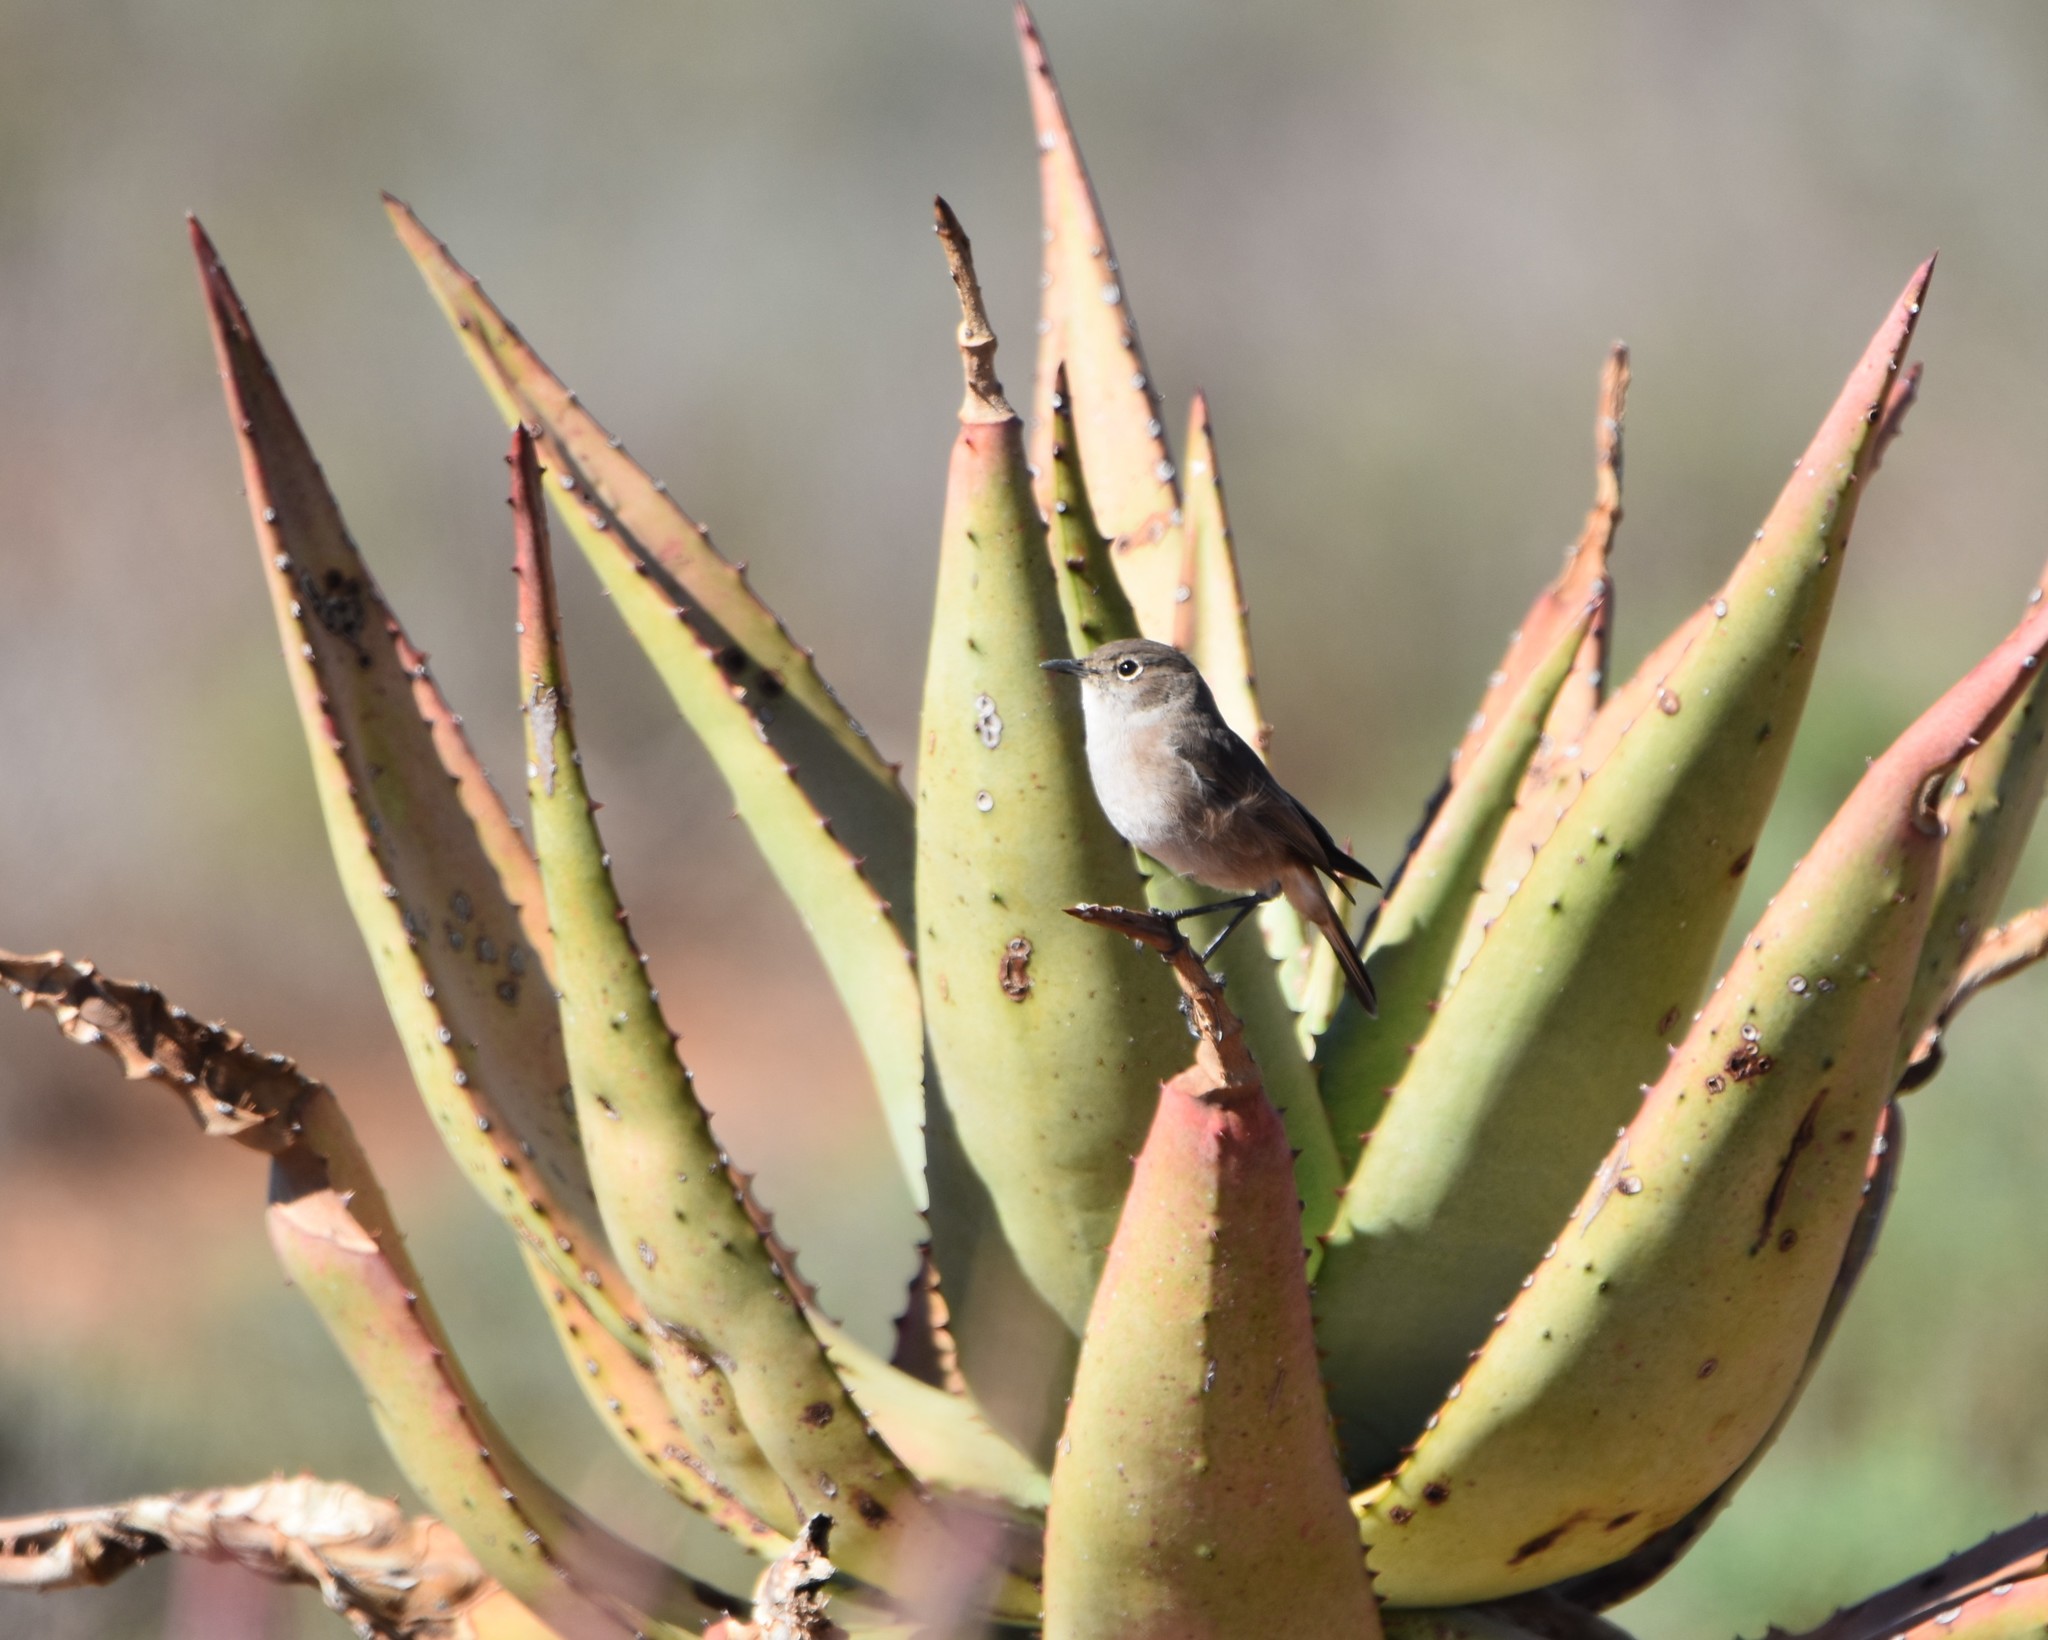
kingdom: Animalia
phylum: Chordata
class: Aves
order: Passeriformes
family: Muscicapidae
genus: Emarginata
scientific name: Emarginata sinuata
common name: Sickle-winged chat
